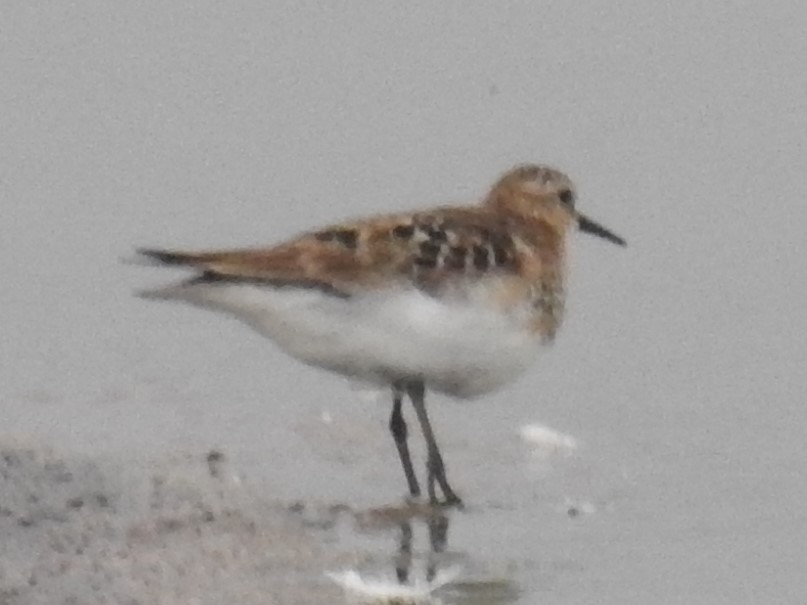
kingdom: Animalia
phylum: Chordata
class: Aves
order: Charadriiformes
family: Scolopacidae
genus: Calidris
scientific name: Calidris bairdii
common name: Baird's sandpiper
